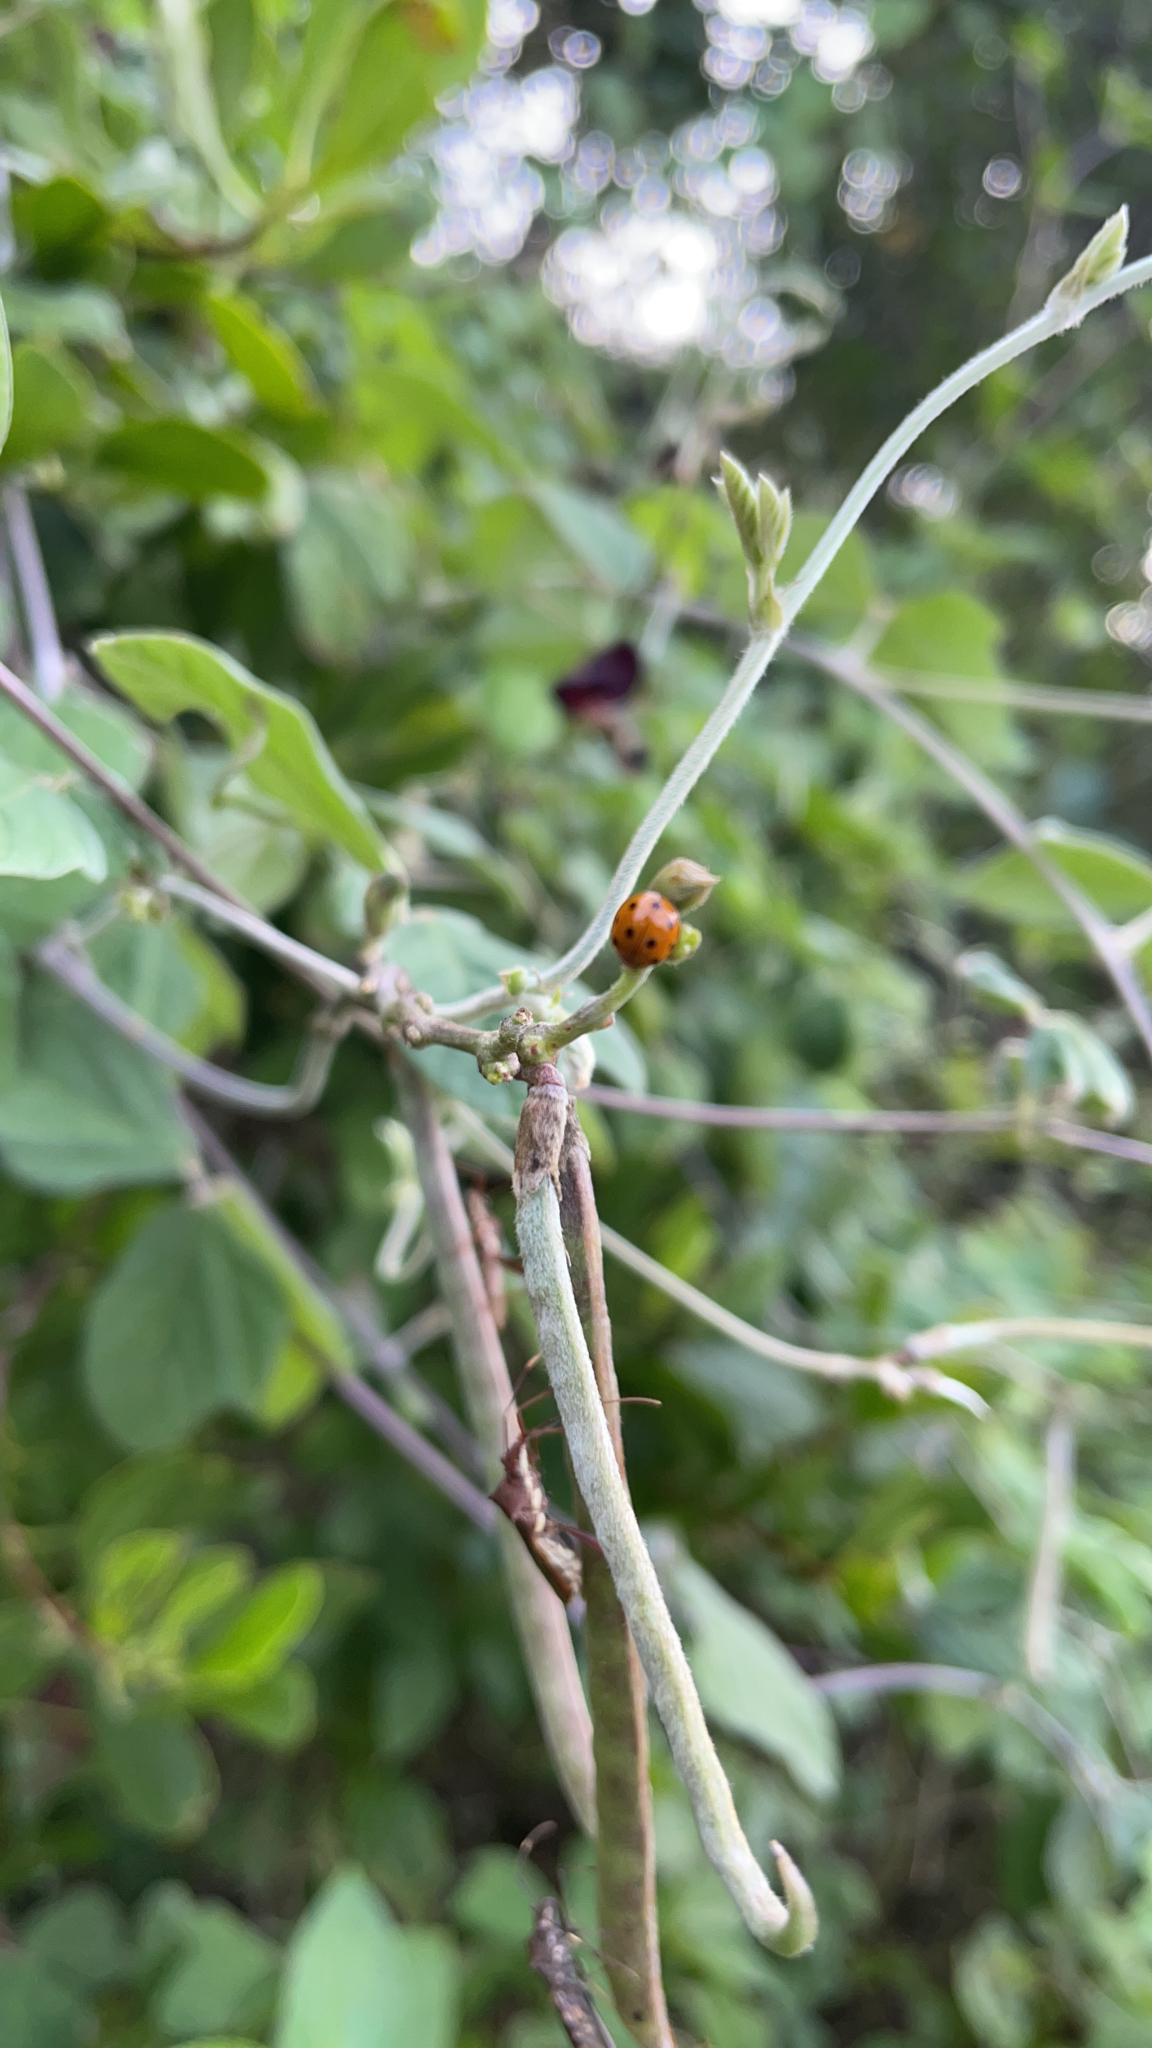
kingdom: Animalia
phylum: Arthropoda
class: Insecta
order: Coleoptera
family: Coccinellidae
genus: Coelophora
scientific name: Coelophora inaequalis
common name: Common australian lady beetle
